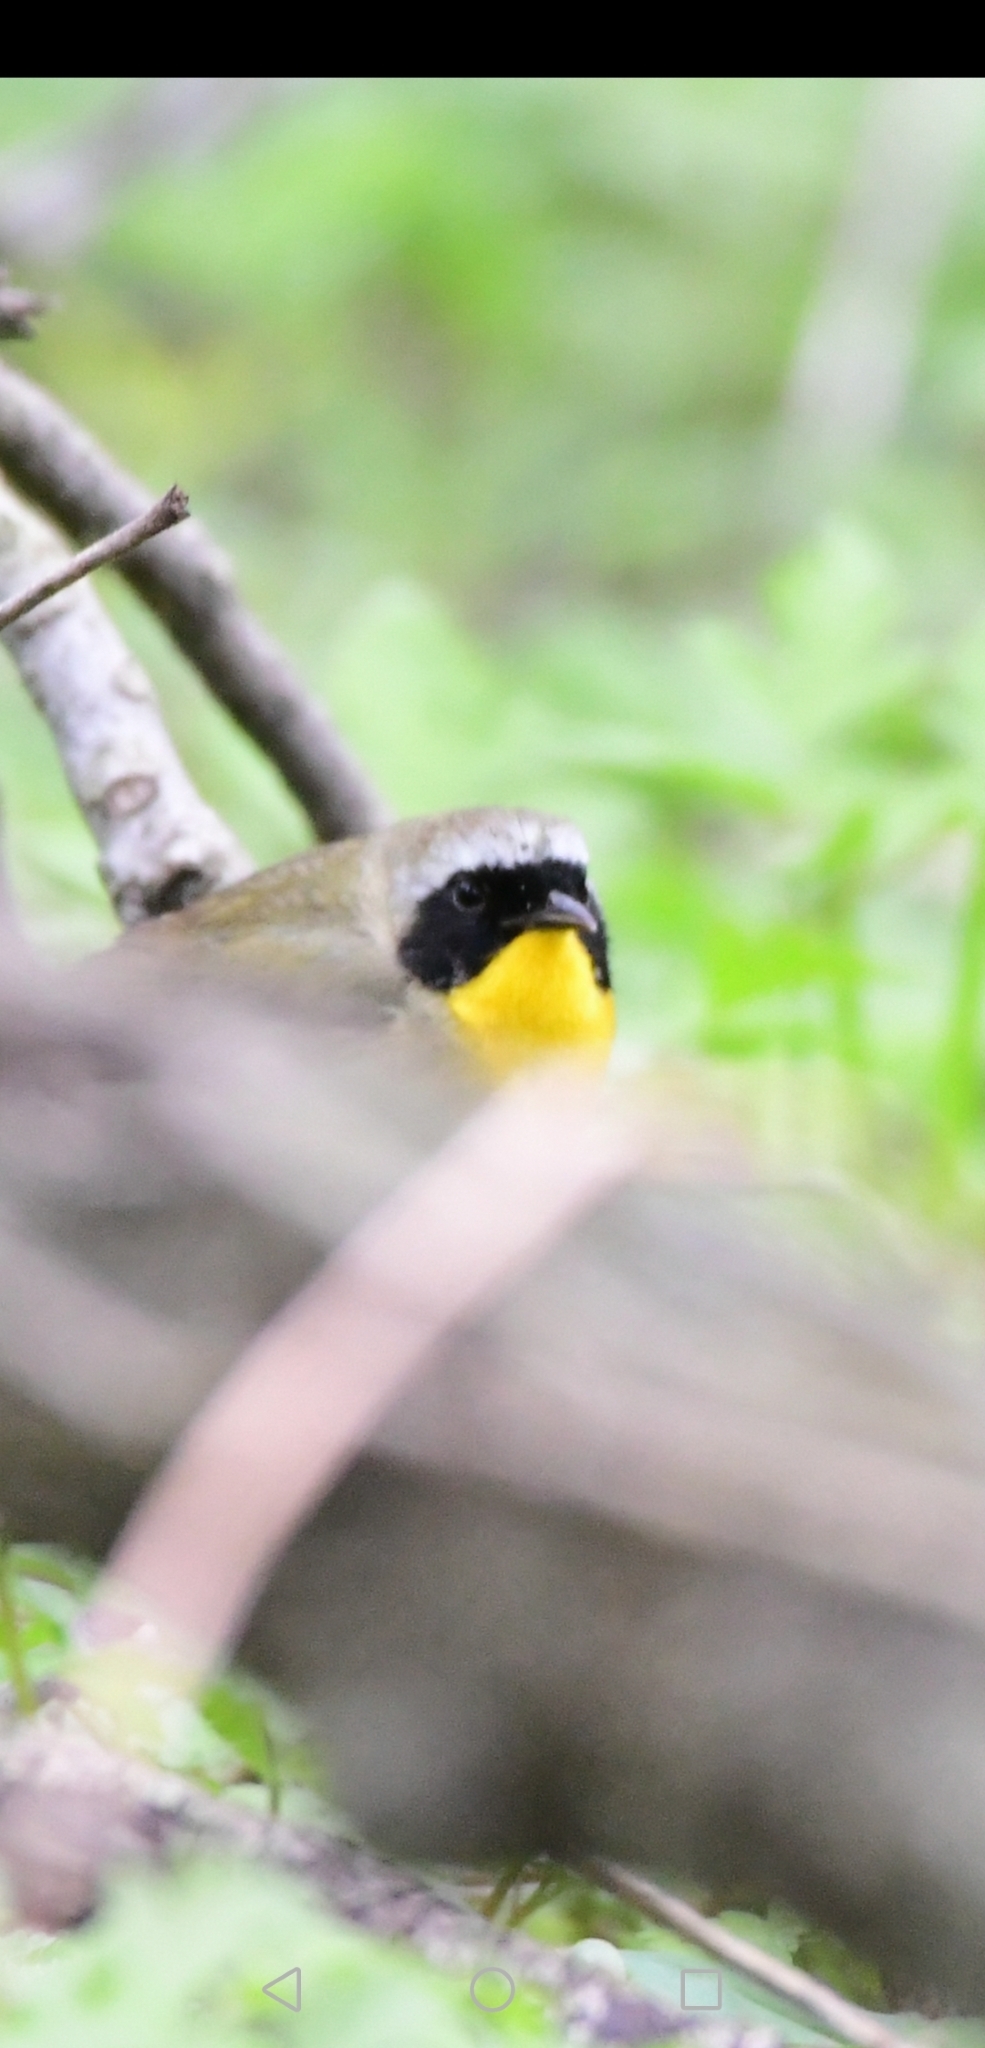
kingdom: Animalia
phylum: Chordata
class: Aves
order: Passeriformes
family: Parulidae
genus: Geothlypis
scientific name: Geothlypis trichas
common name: Common yellowthroat
